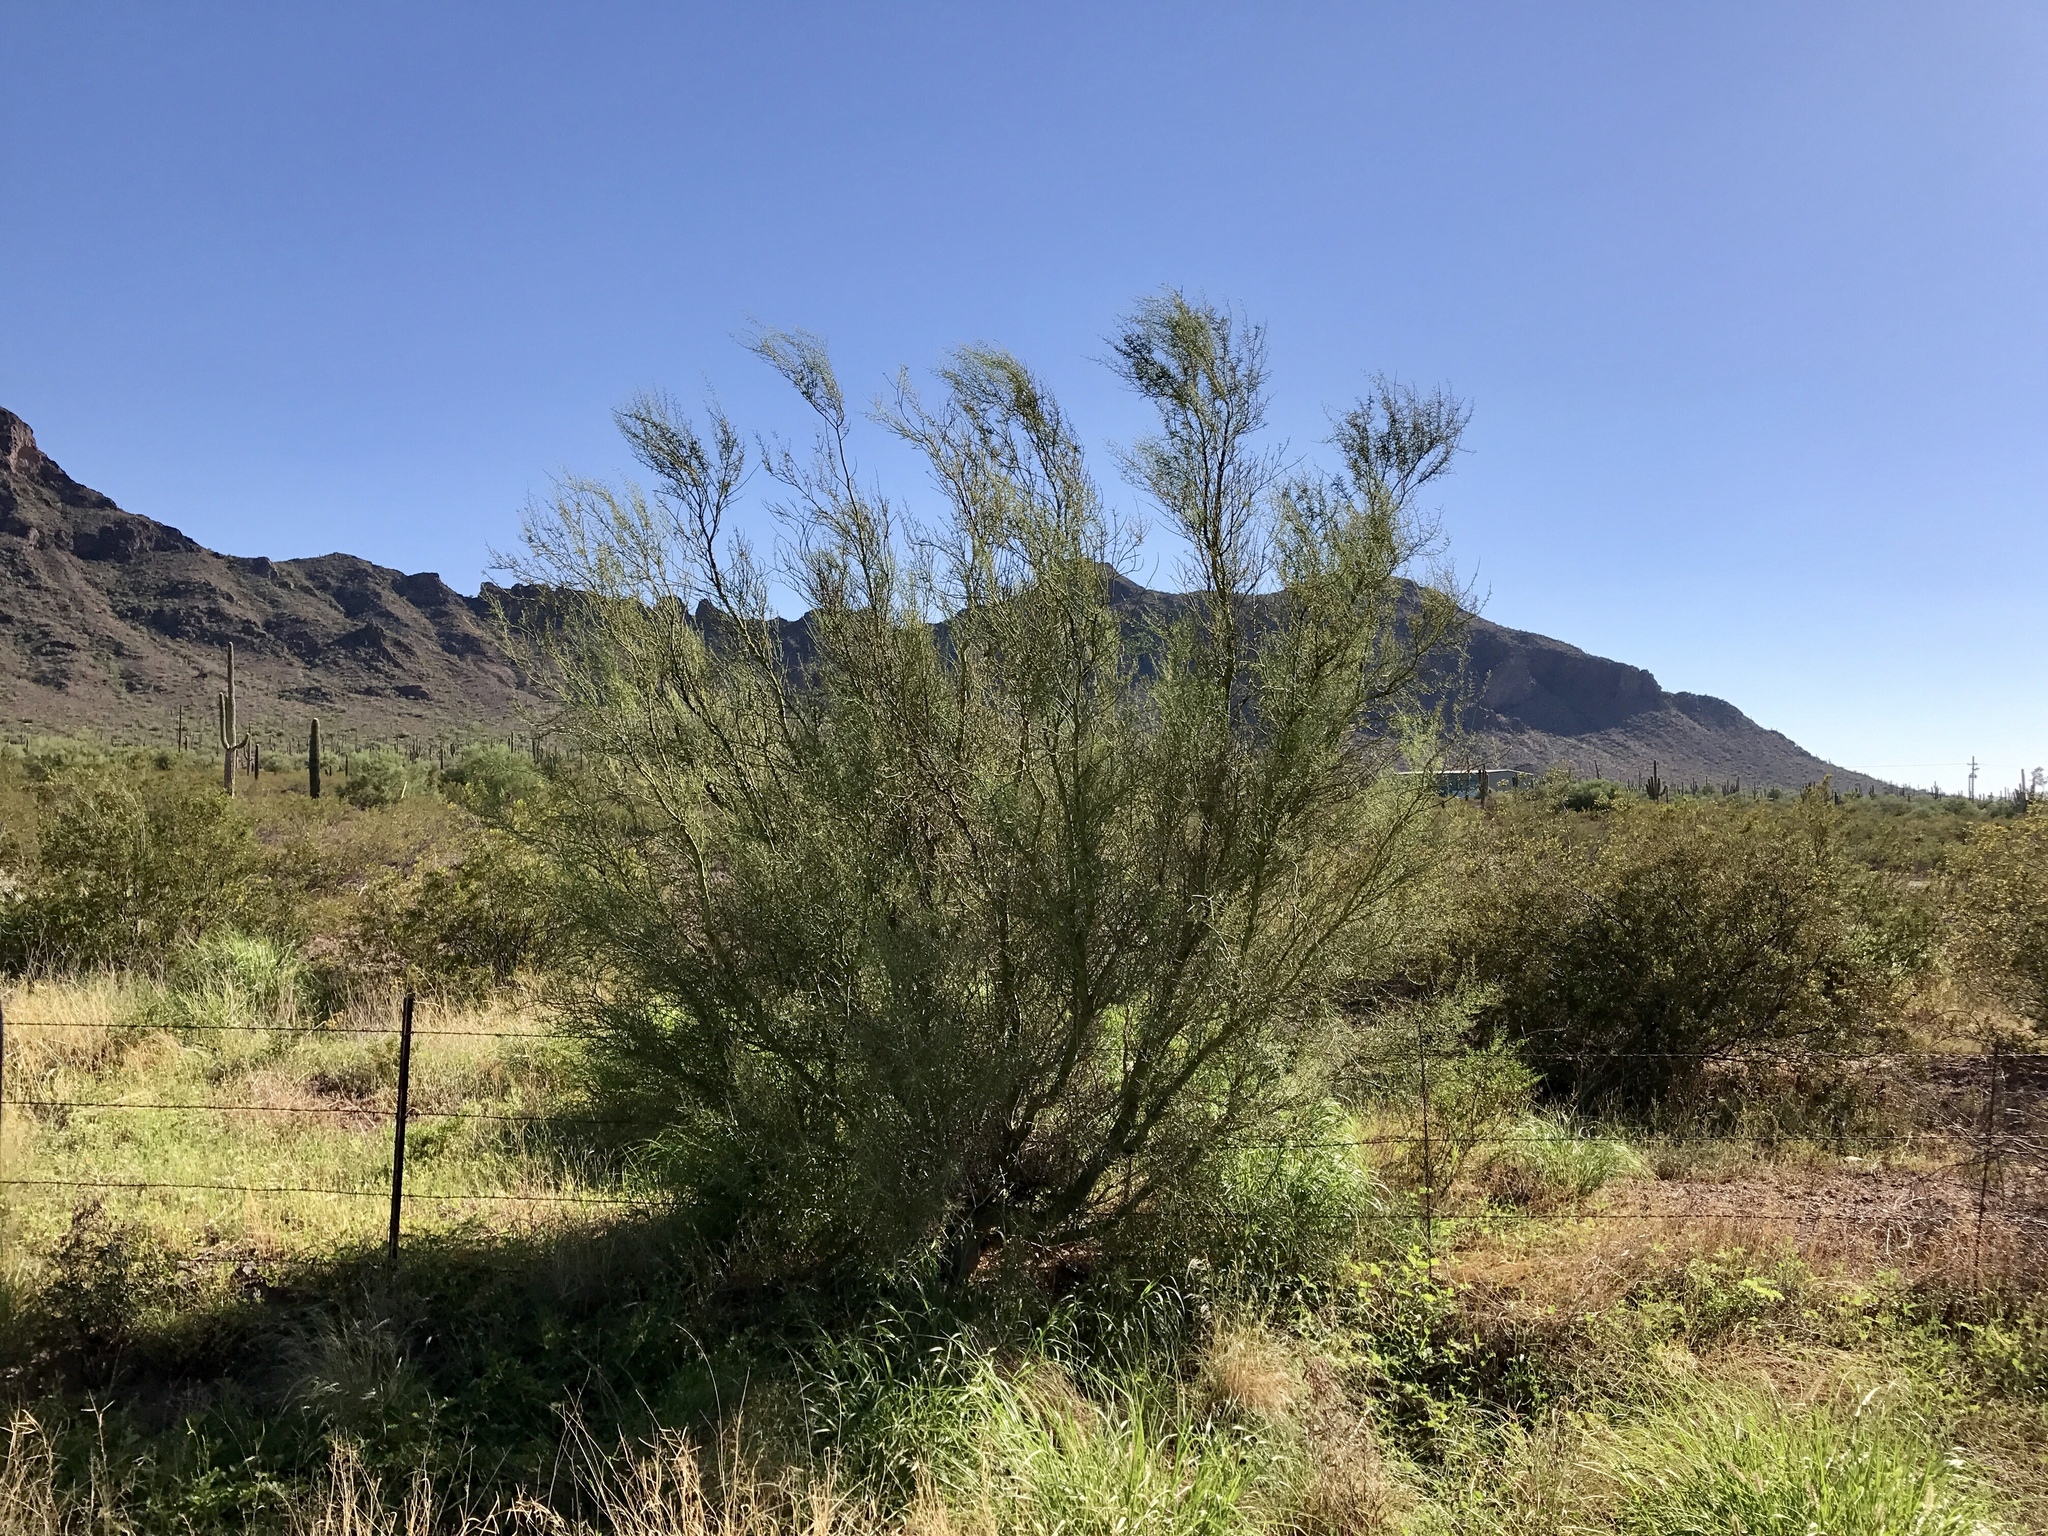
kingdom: Plantae
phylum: Tracheophyta
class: Magnoliopsida
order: Fabales
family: Fabaceae
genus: Parkinsonia
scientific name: Parkinsonia microphylla
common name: Yellow paloverde
